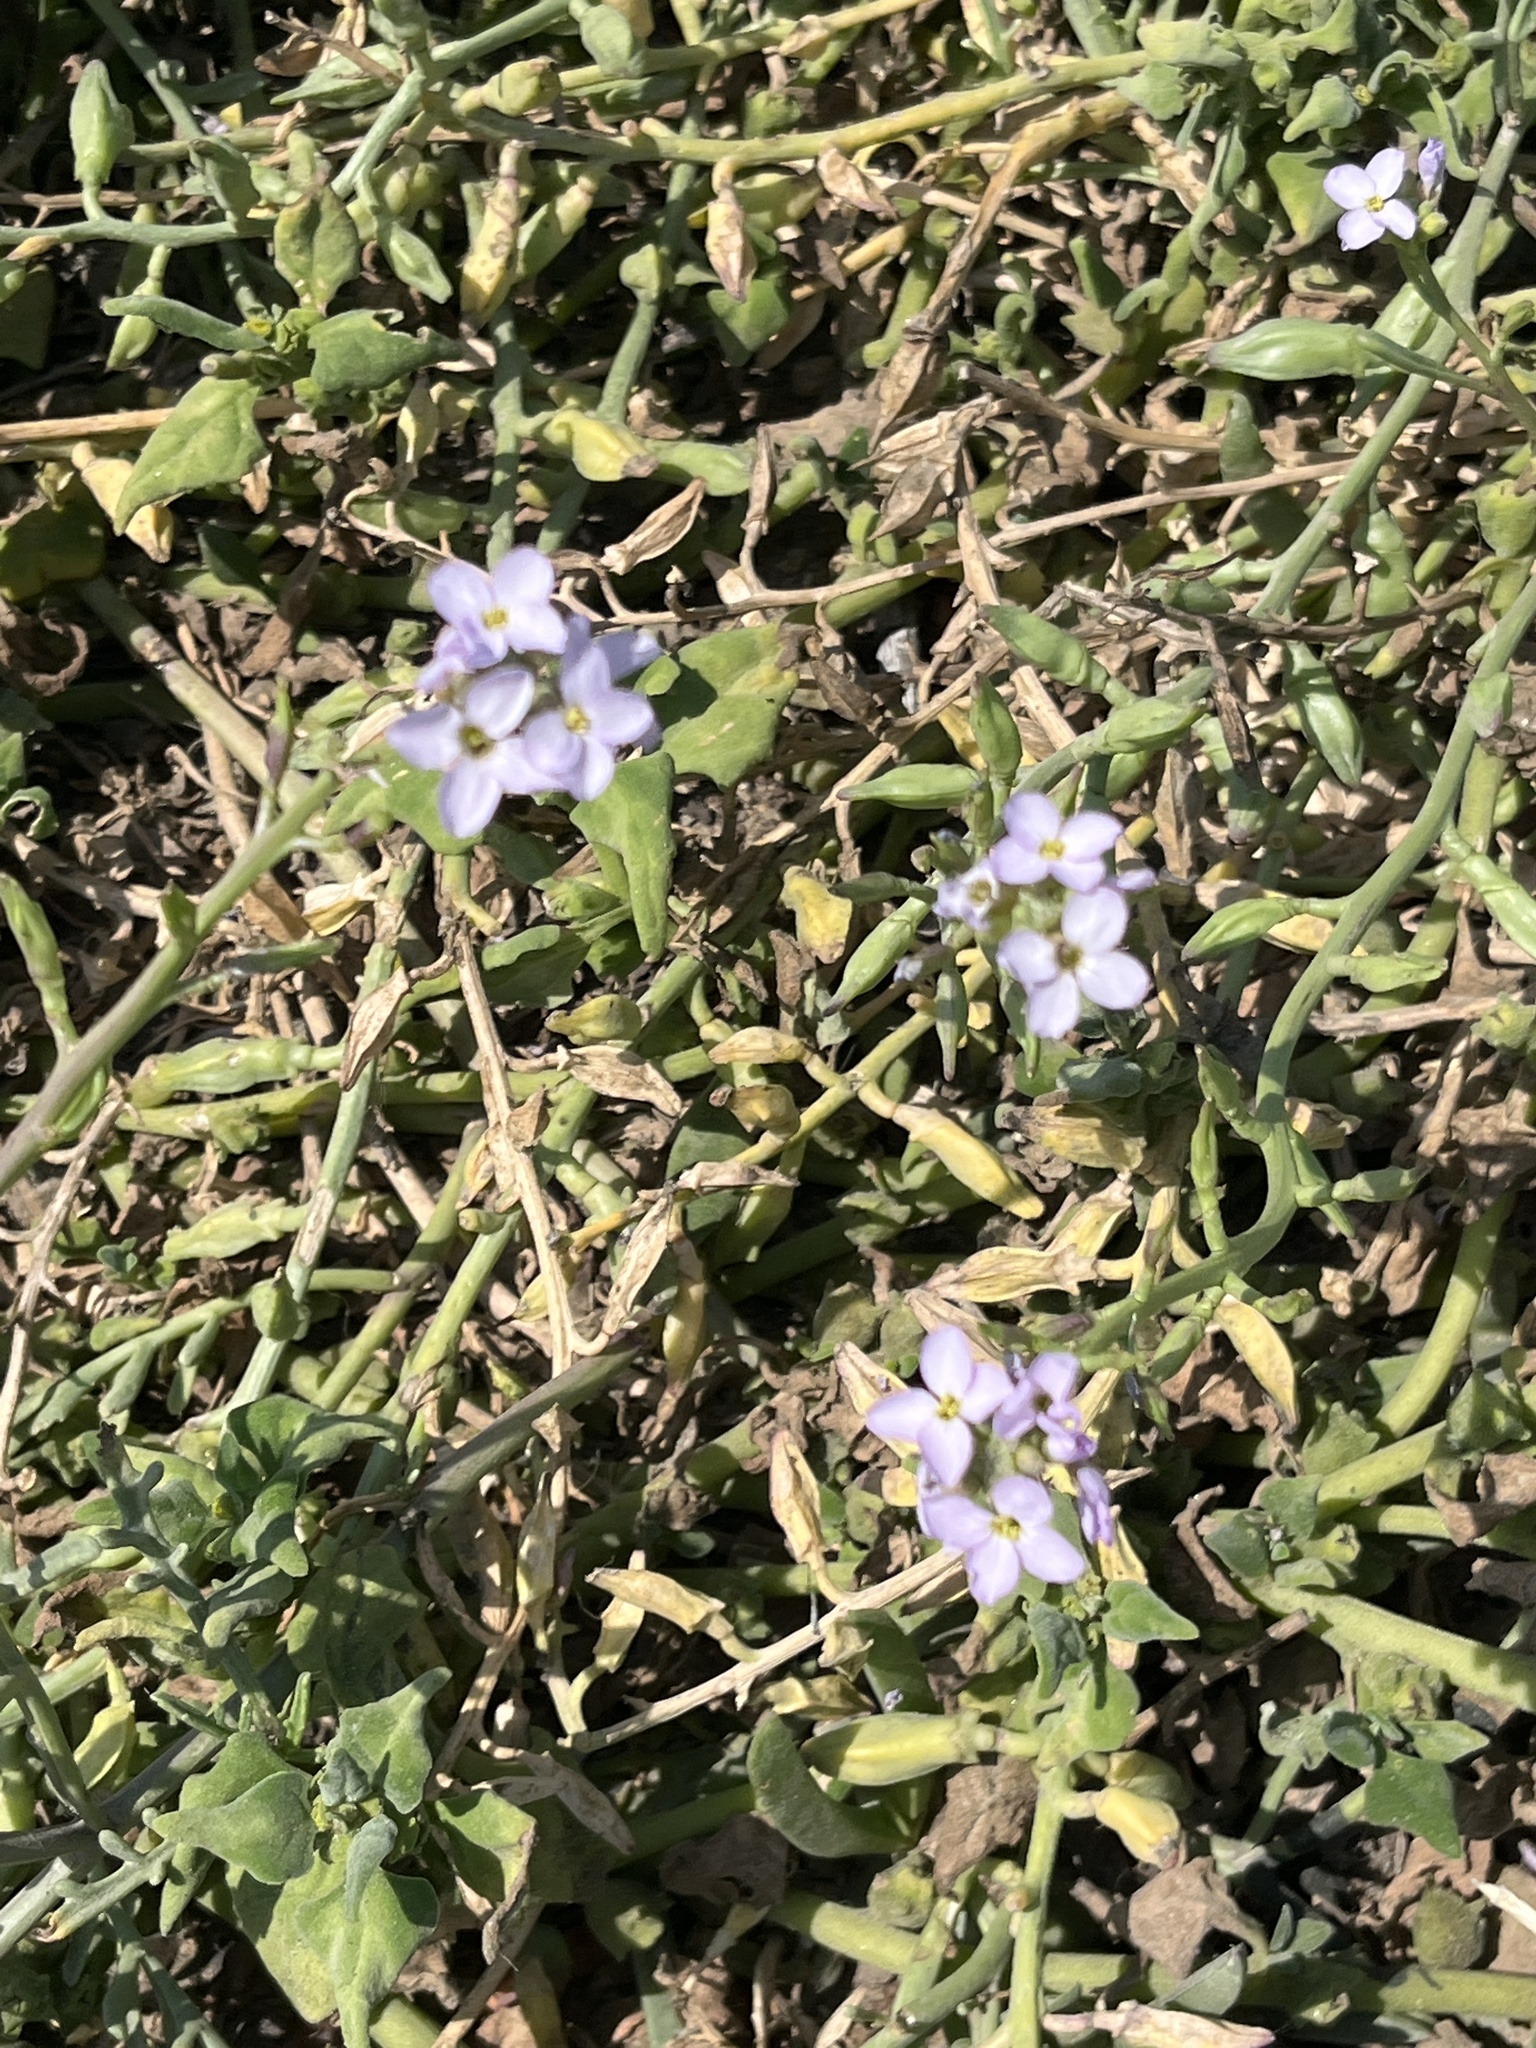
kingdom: Plantae
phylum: Tracheophyta
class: Magnoliopsida
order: Brassicales
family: Brassicaceae
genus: Cakile
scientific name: Cakile maritima
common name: Sea rocket
